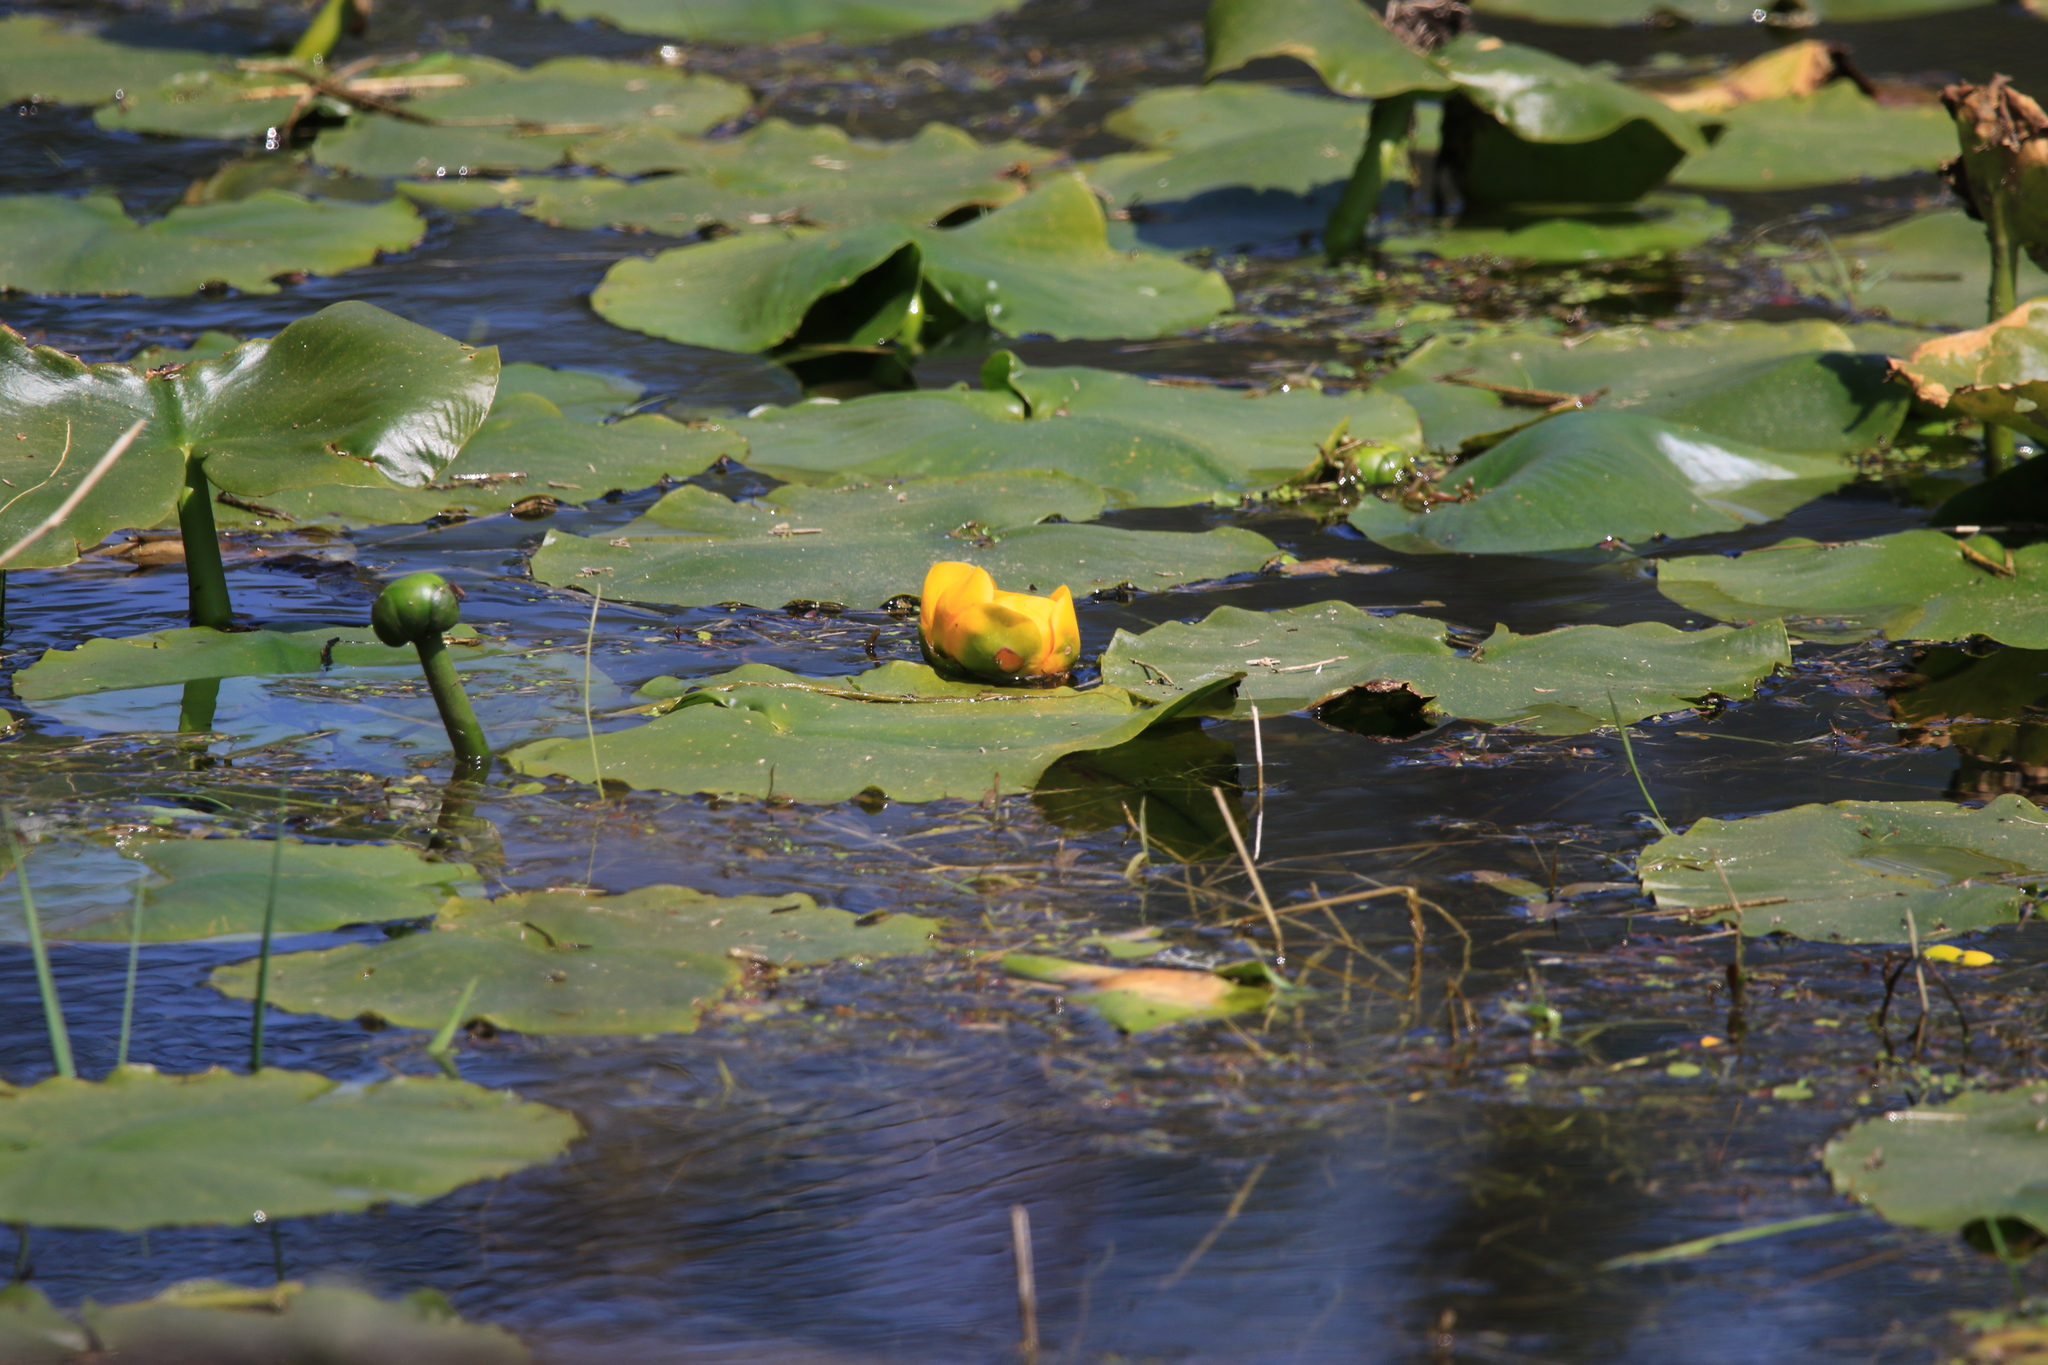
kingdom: Plantae
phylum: Tracheophyta
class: Magnoliopsida
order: Nymphaeales
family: Nymphaeaceae
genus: Nuphar
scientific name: Nuphar polysepala
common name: Rocky mountain cow-lily
